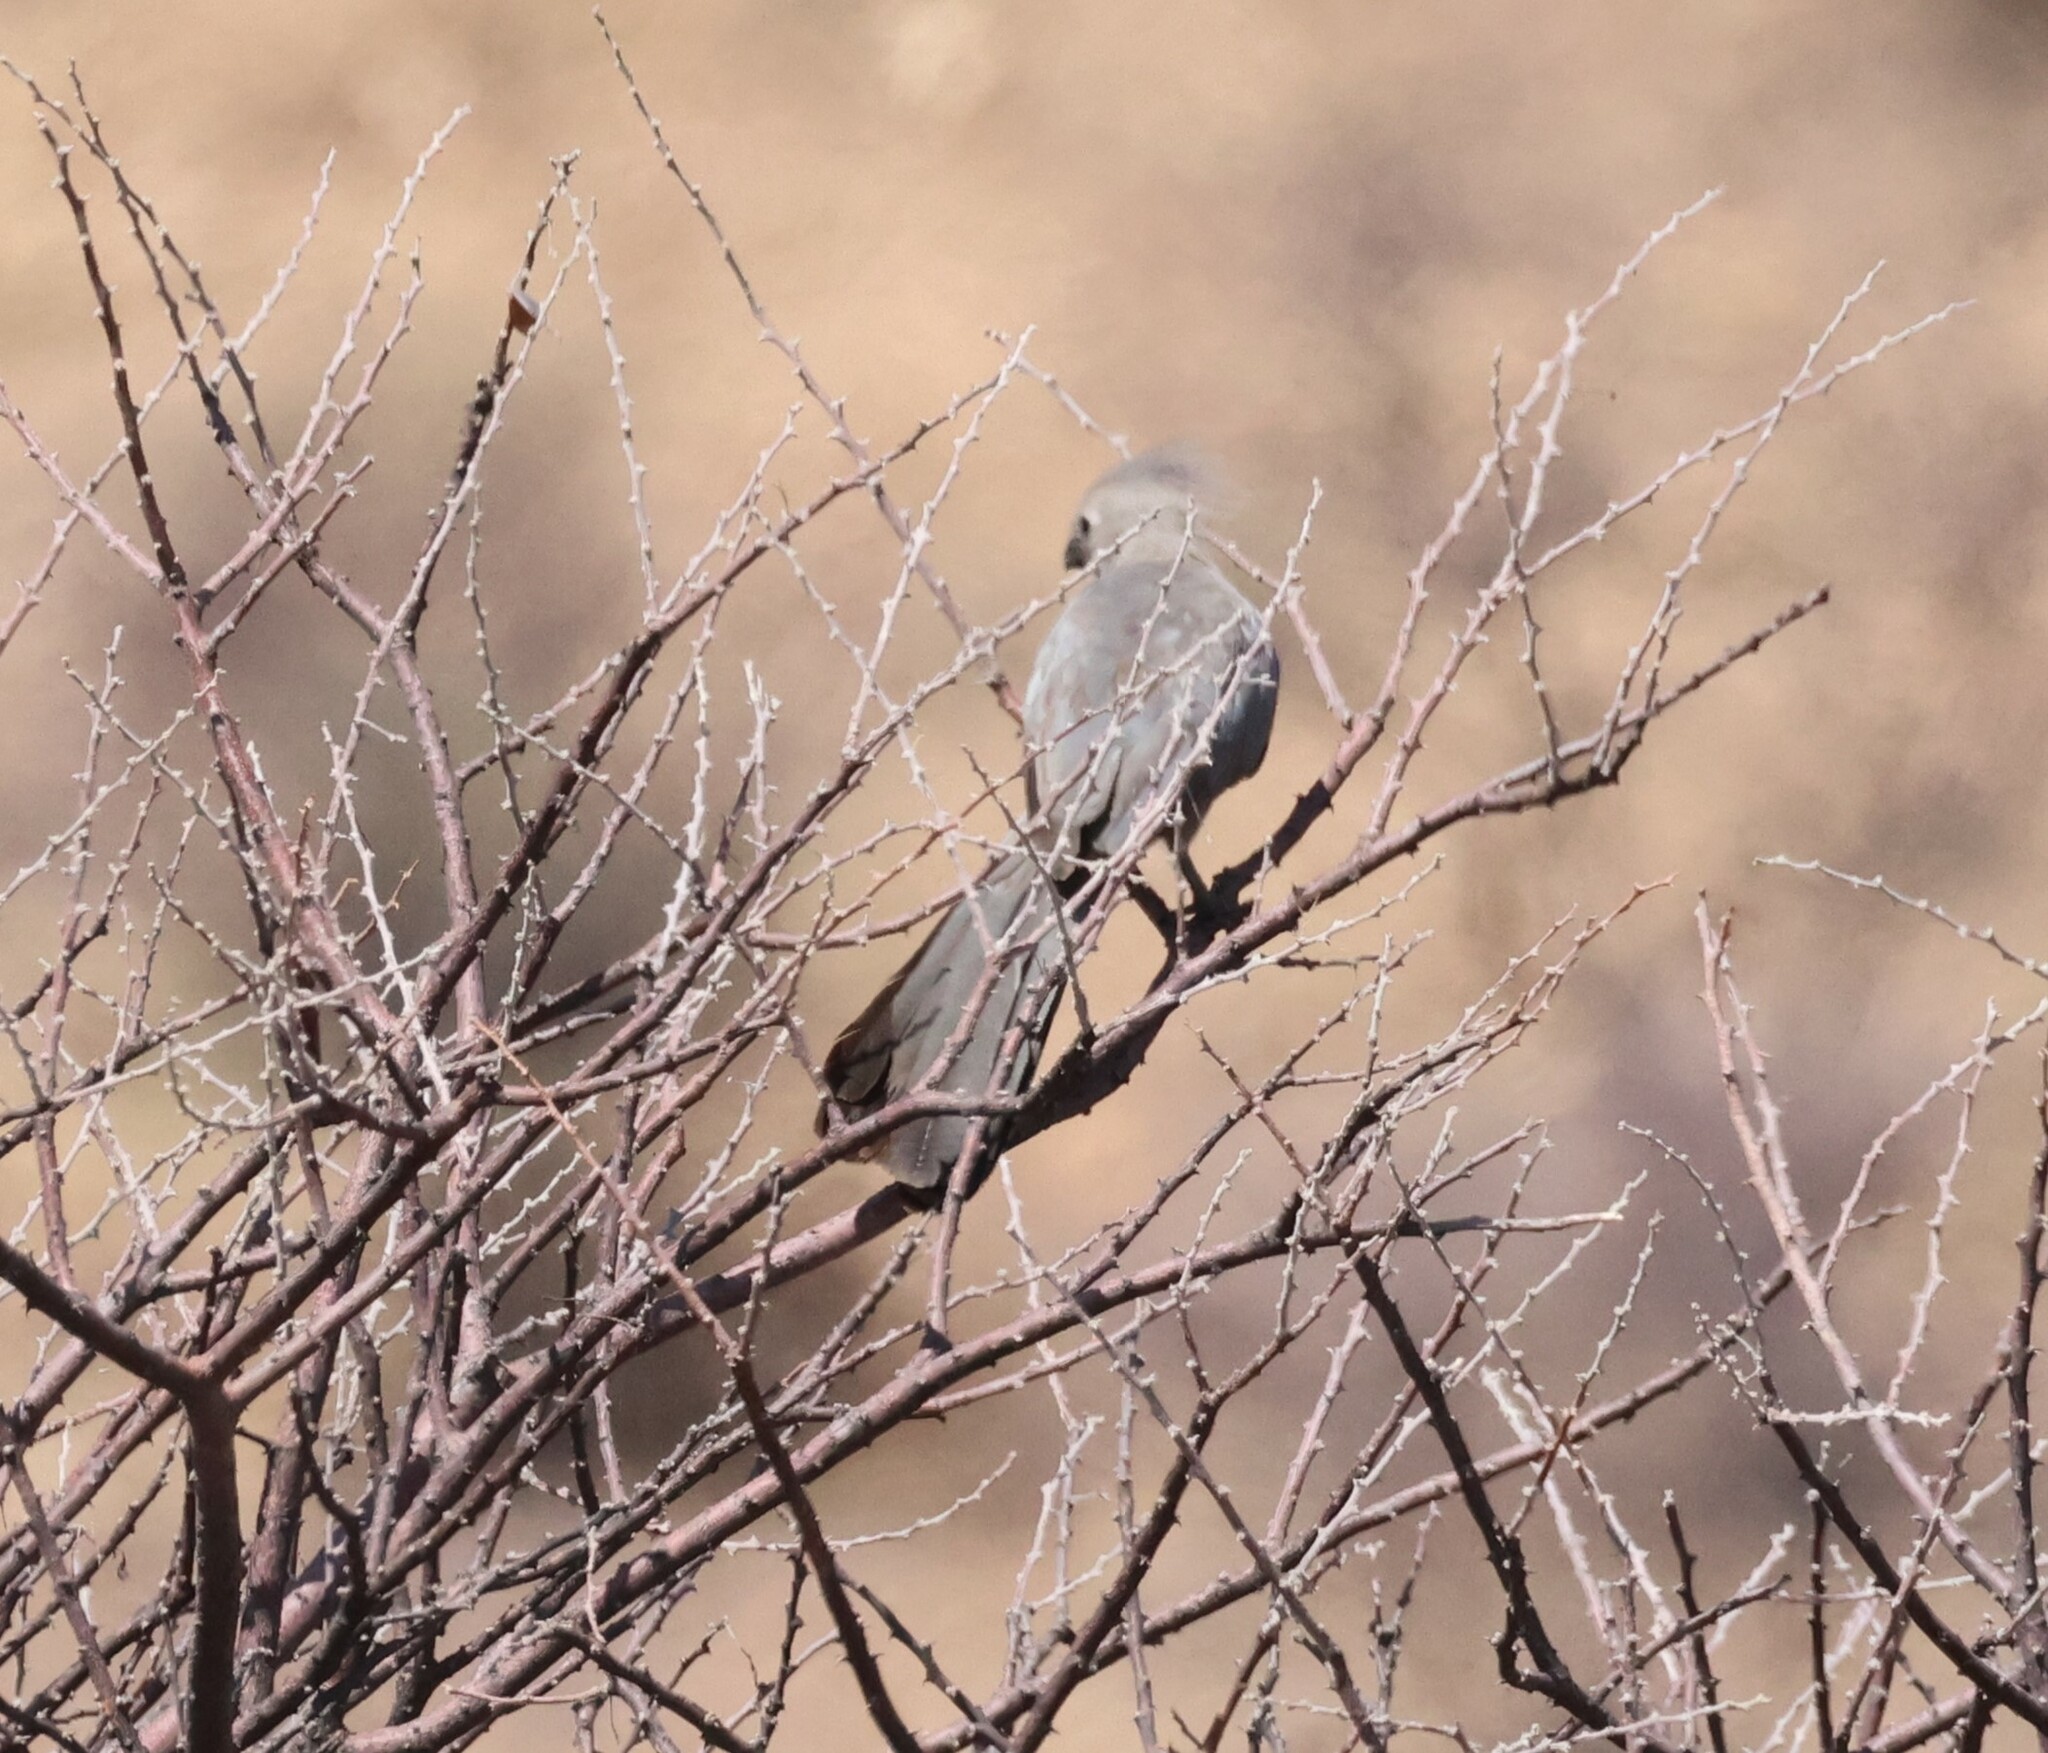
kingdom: Animalia
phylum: Chordata
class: Aves
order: Musophagiformes
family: Musophagidae
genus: Corythaixoides
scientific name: Corythaixoides concolor
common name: Grey go-away-bird
